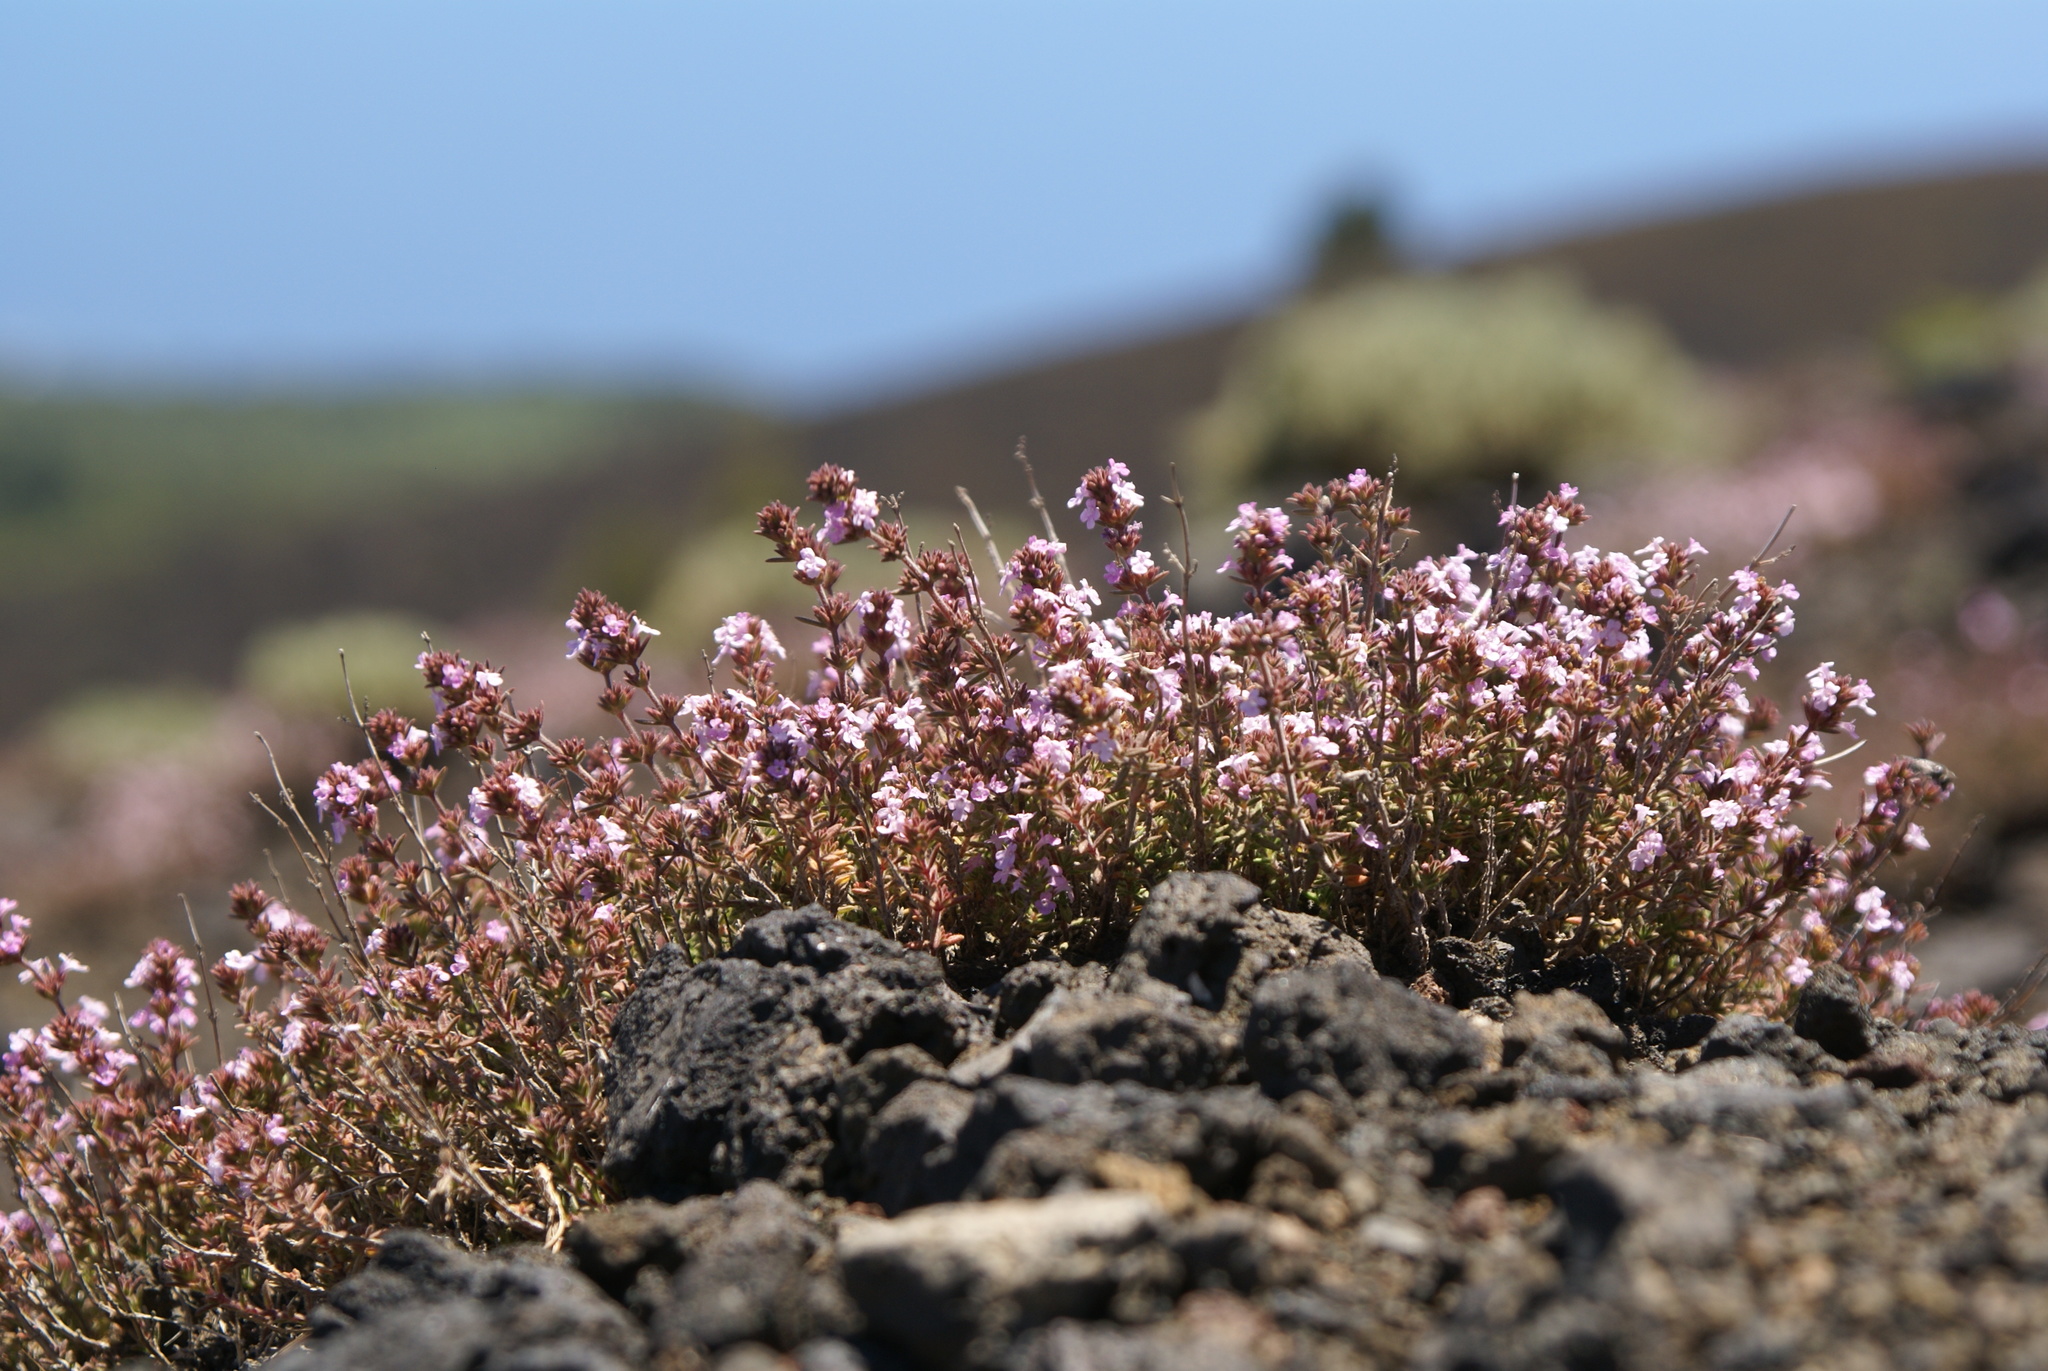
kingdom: Plantae
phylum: Tracheophyta
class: Magnoliopsida
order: Lamiales
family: Lamiaceae
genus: Micromeria
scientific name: Micromeria herpyllomorpha
